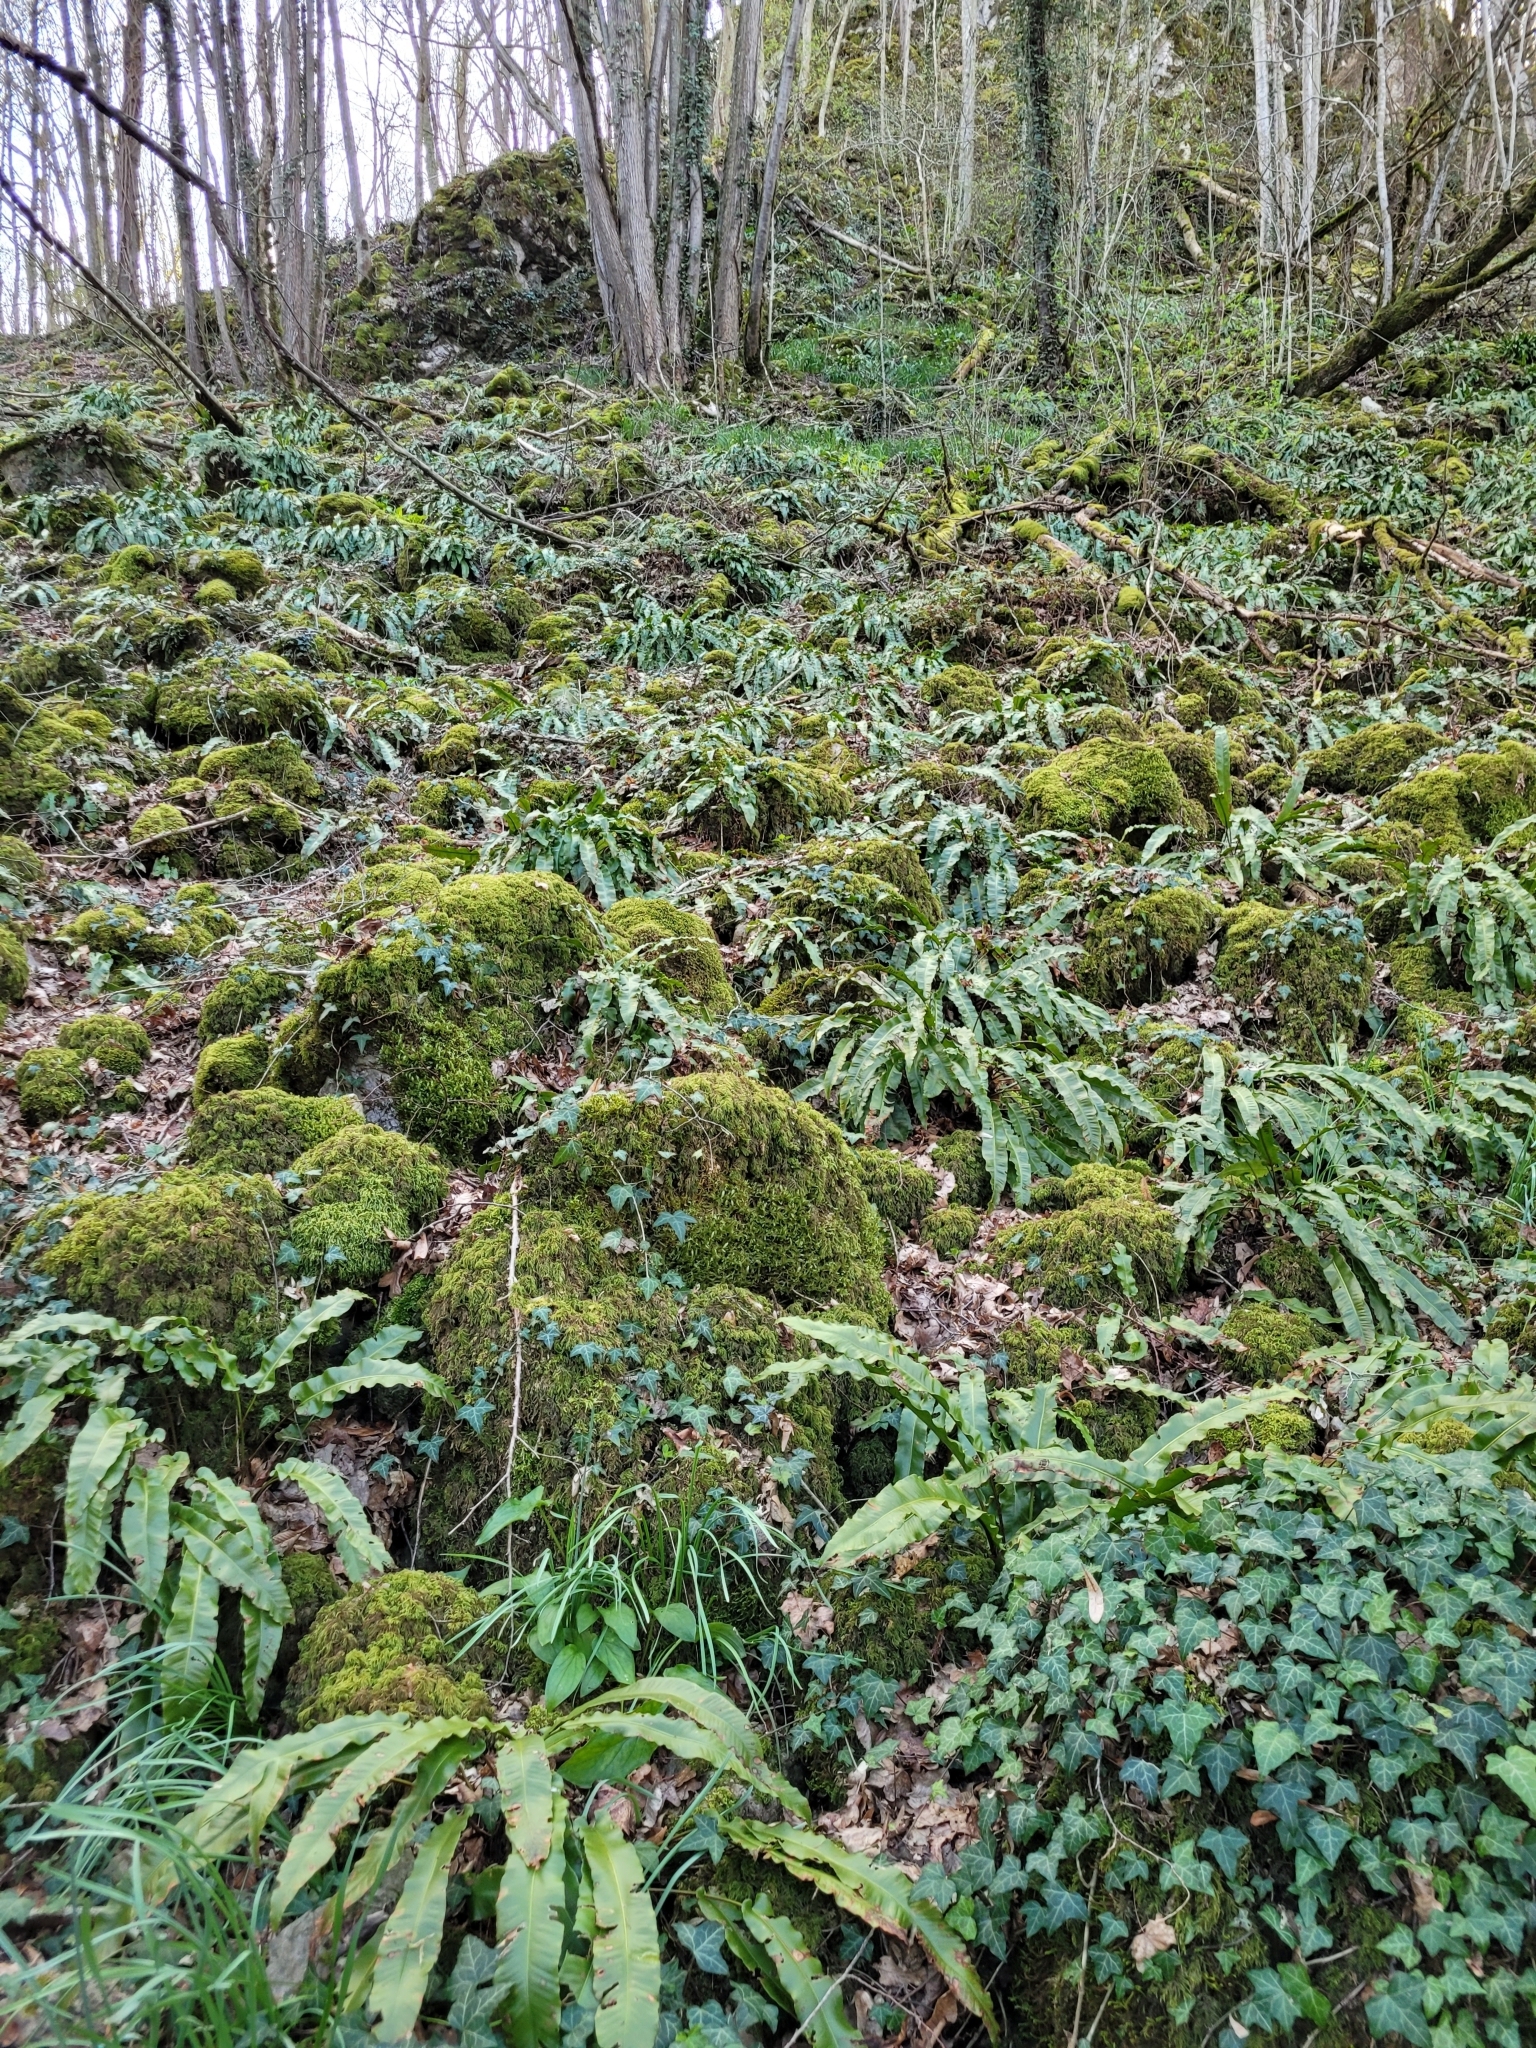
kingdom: Plantae
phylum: Tracheophyta
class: Polypodiopsida
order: Polypodiales
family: Aspleniaceae
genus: Asplenium
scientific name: Asplenium scolopendrium
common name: Hart's-tongue fern
